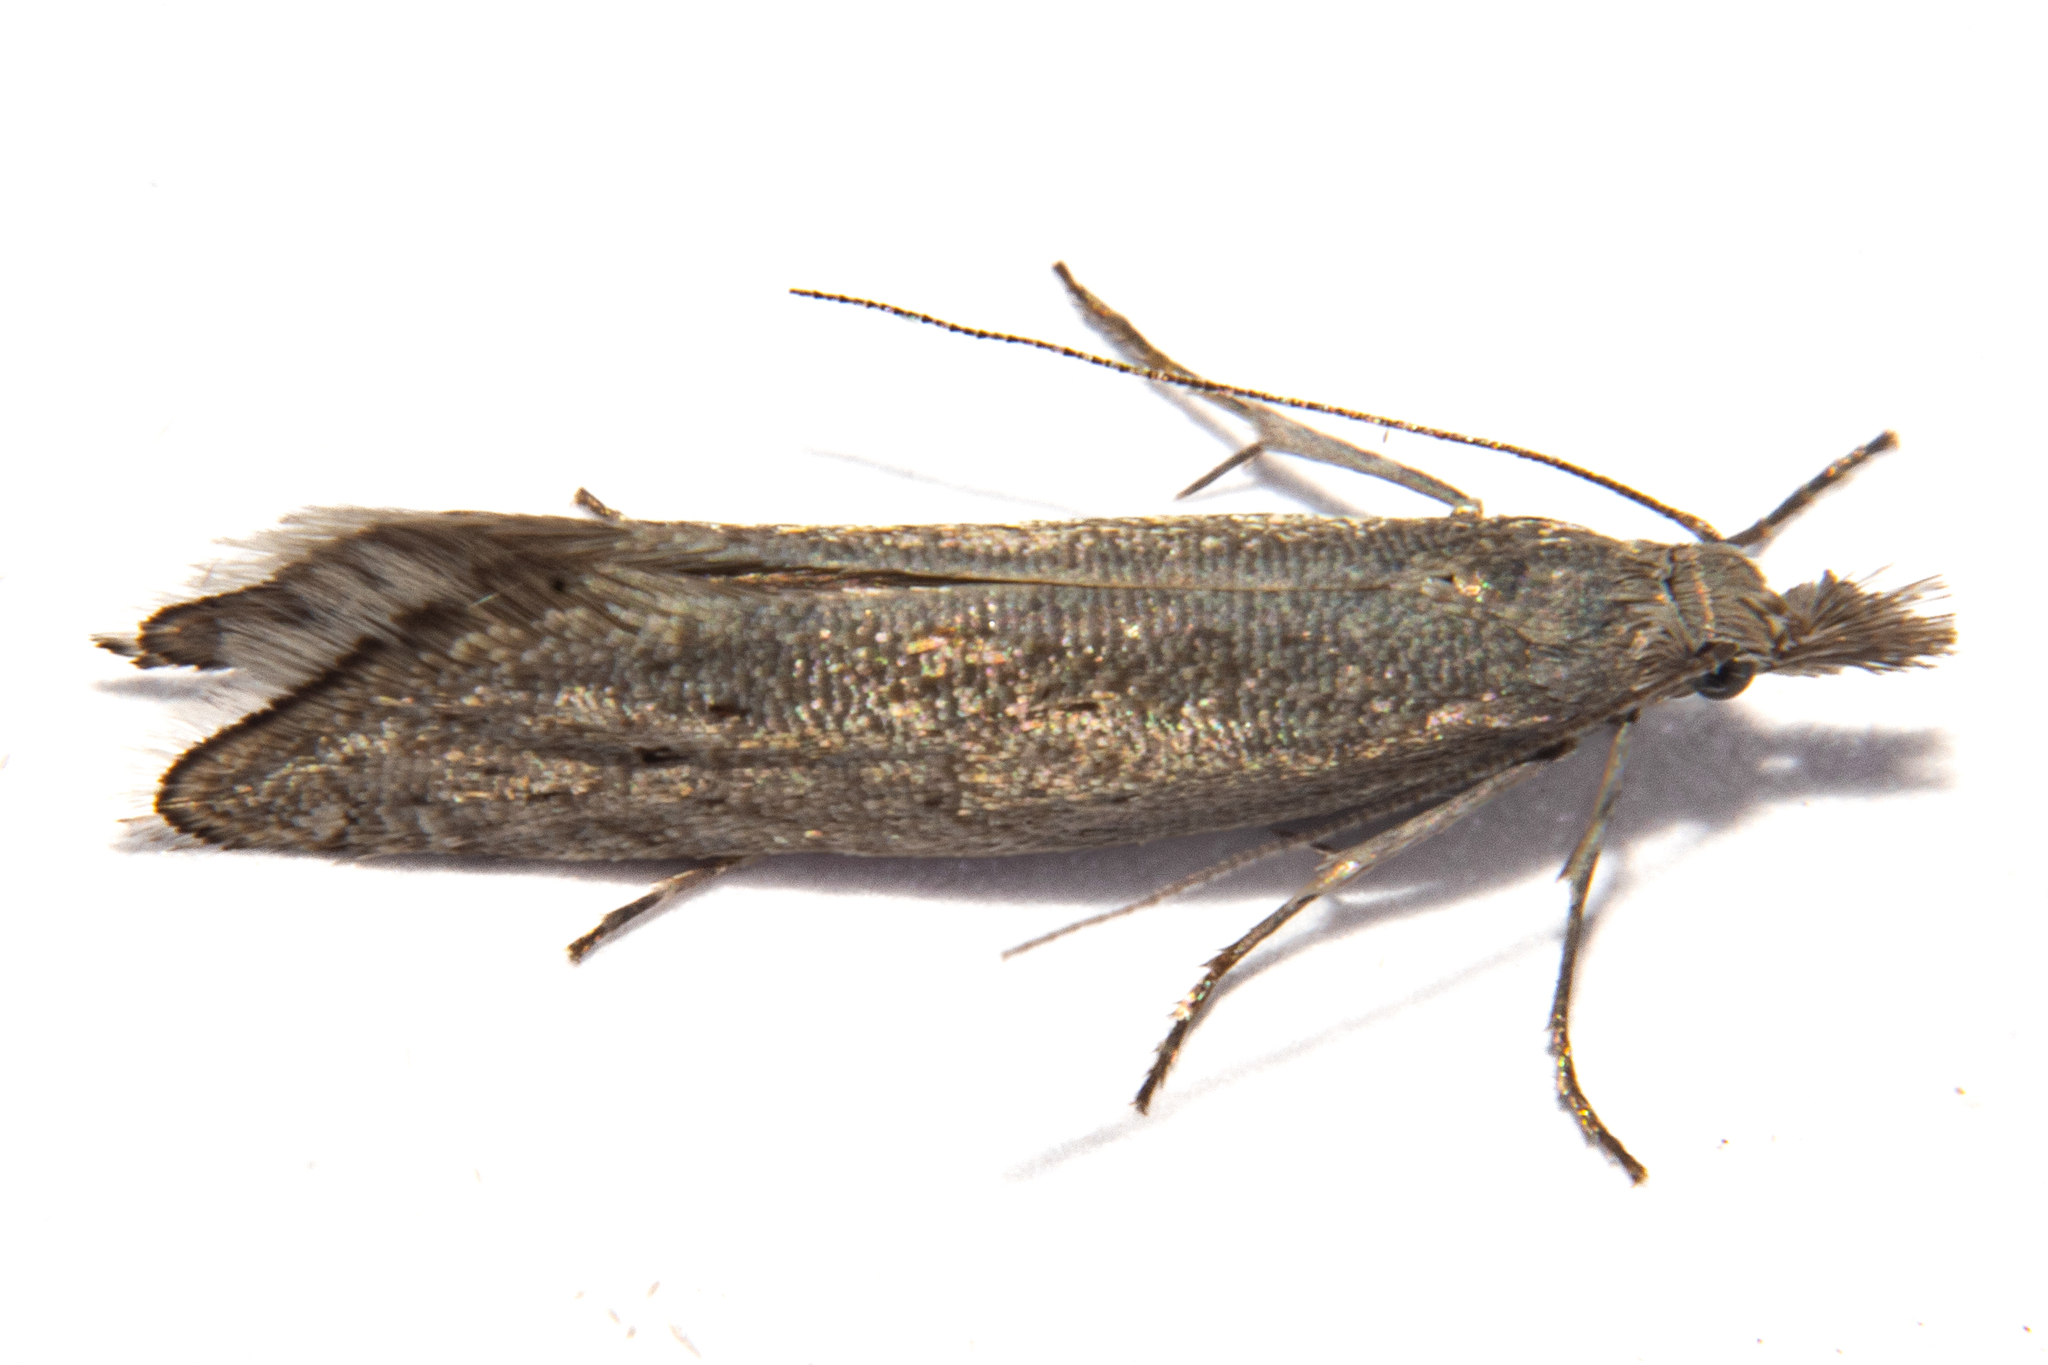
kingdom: Animalia
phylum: Arthropoda
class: Insecta
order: Lepidoptera
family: Glyphipterigidae
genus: Glyphipterix
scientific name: Glyphipterix achlyoessa
